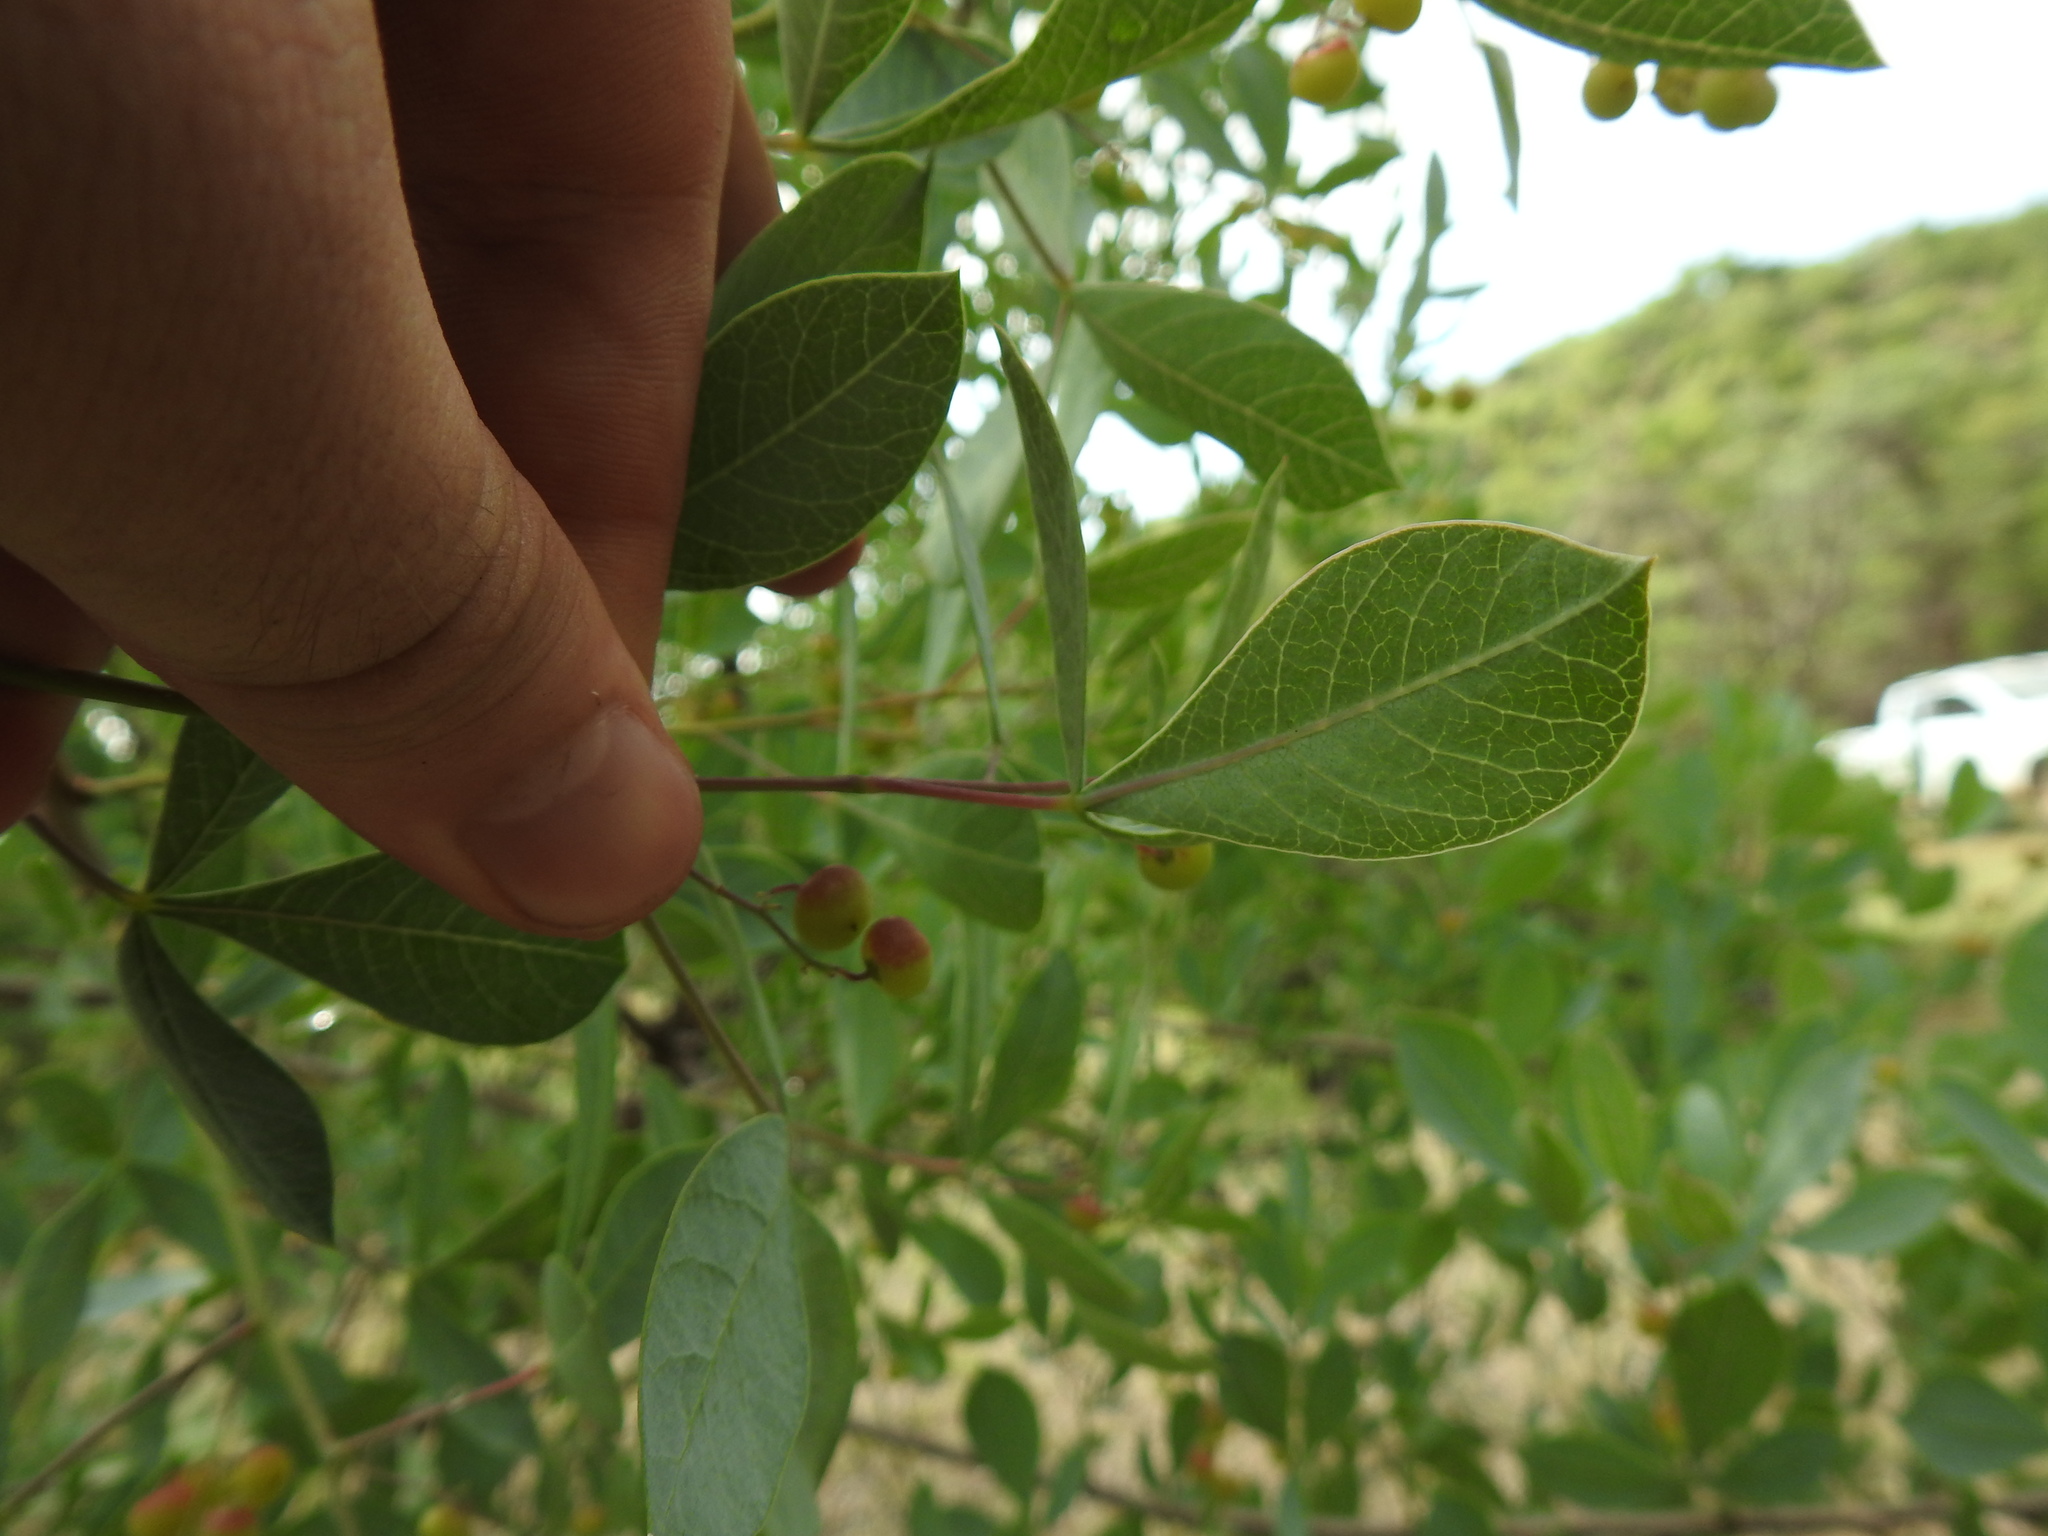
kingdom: Plantae
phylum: Tracheophyta
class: Magnoliopsida
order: Sapindales
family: Anacardiaceae
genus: Searsia
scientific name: Searsia zeyheri
